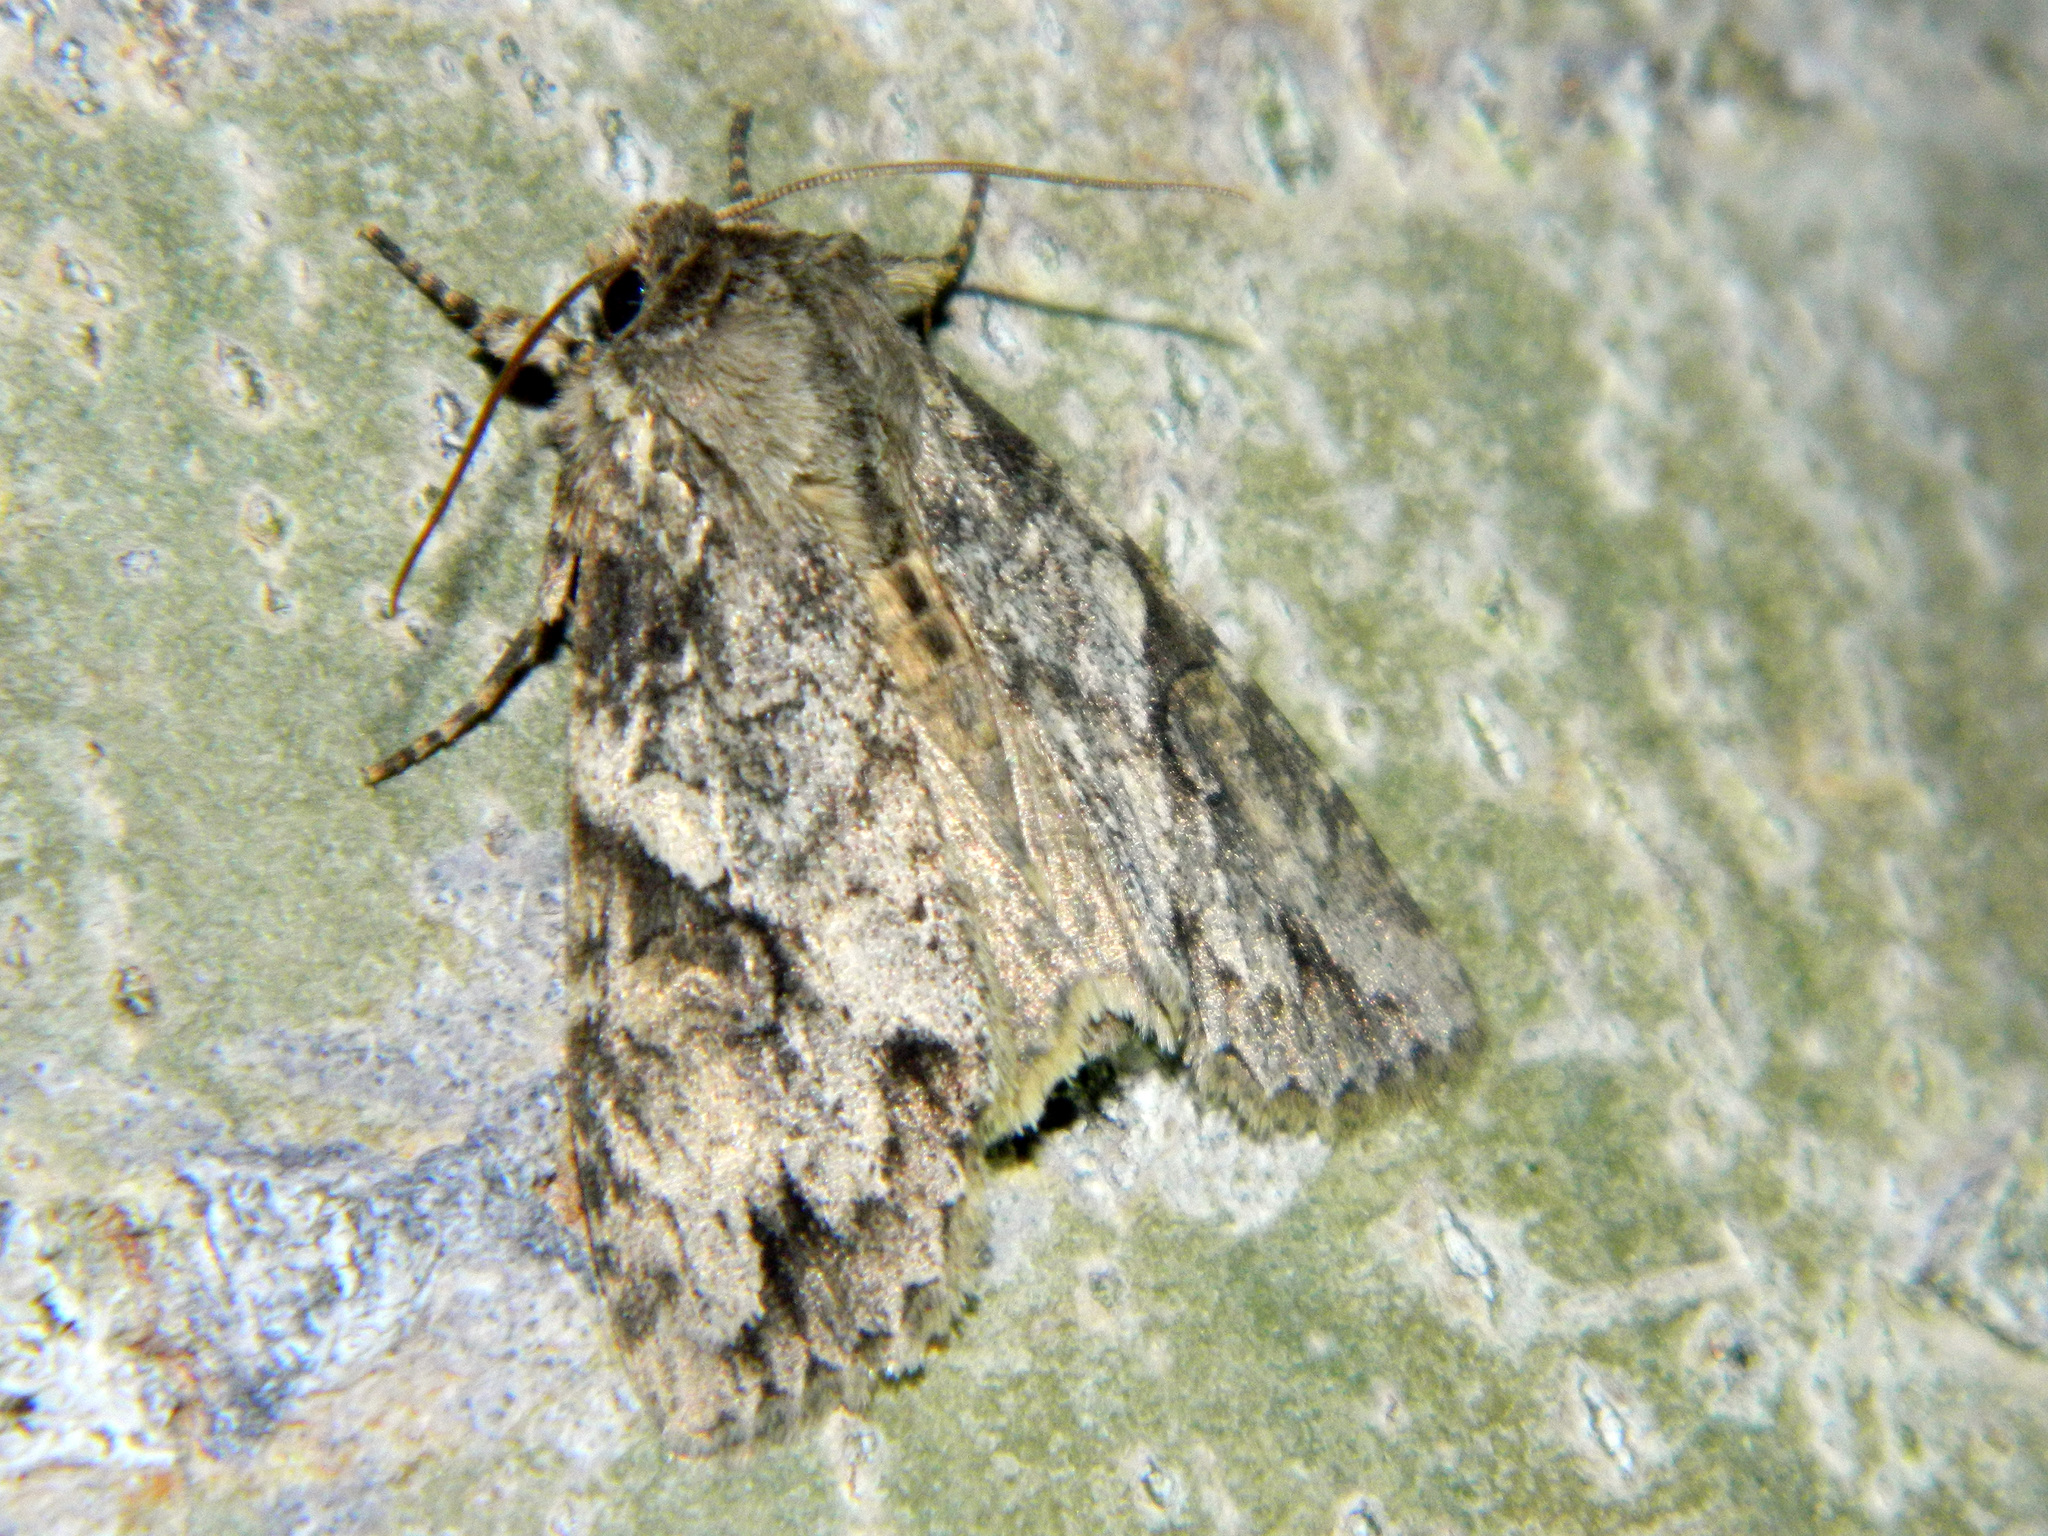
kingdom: Animalia
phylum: Arthropoda
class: Insecta
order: Lepidoptera
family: Noctuidae
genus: Achatia
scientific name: Achatia latex
